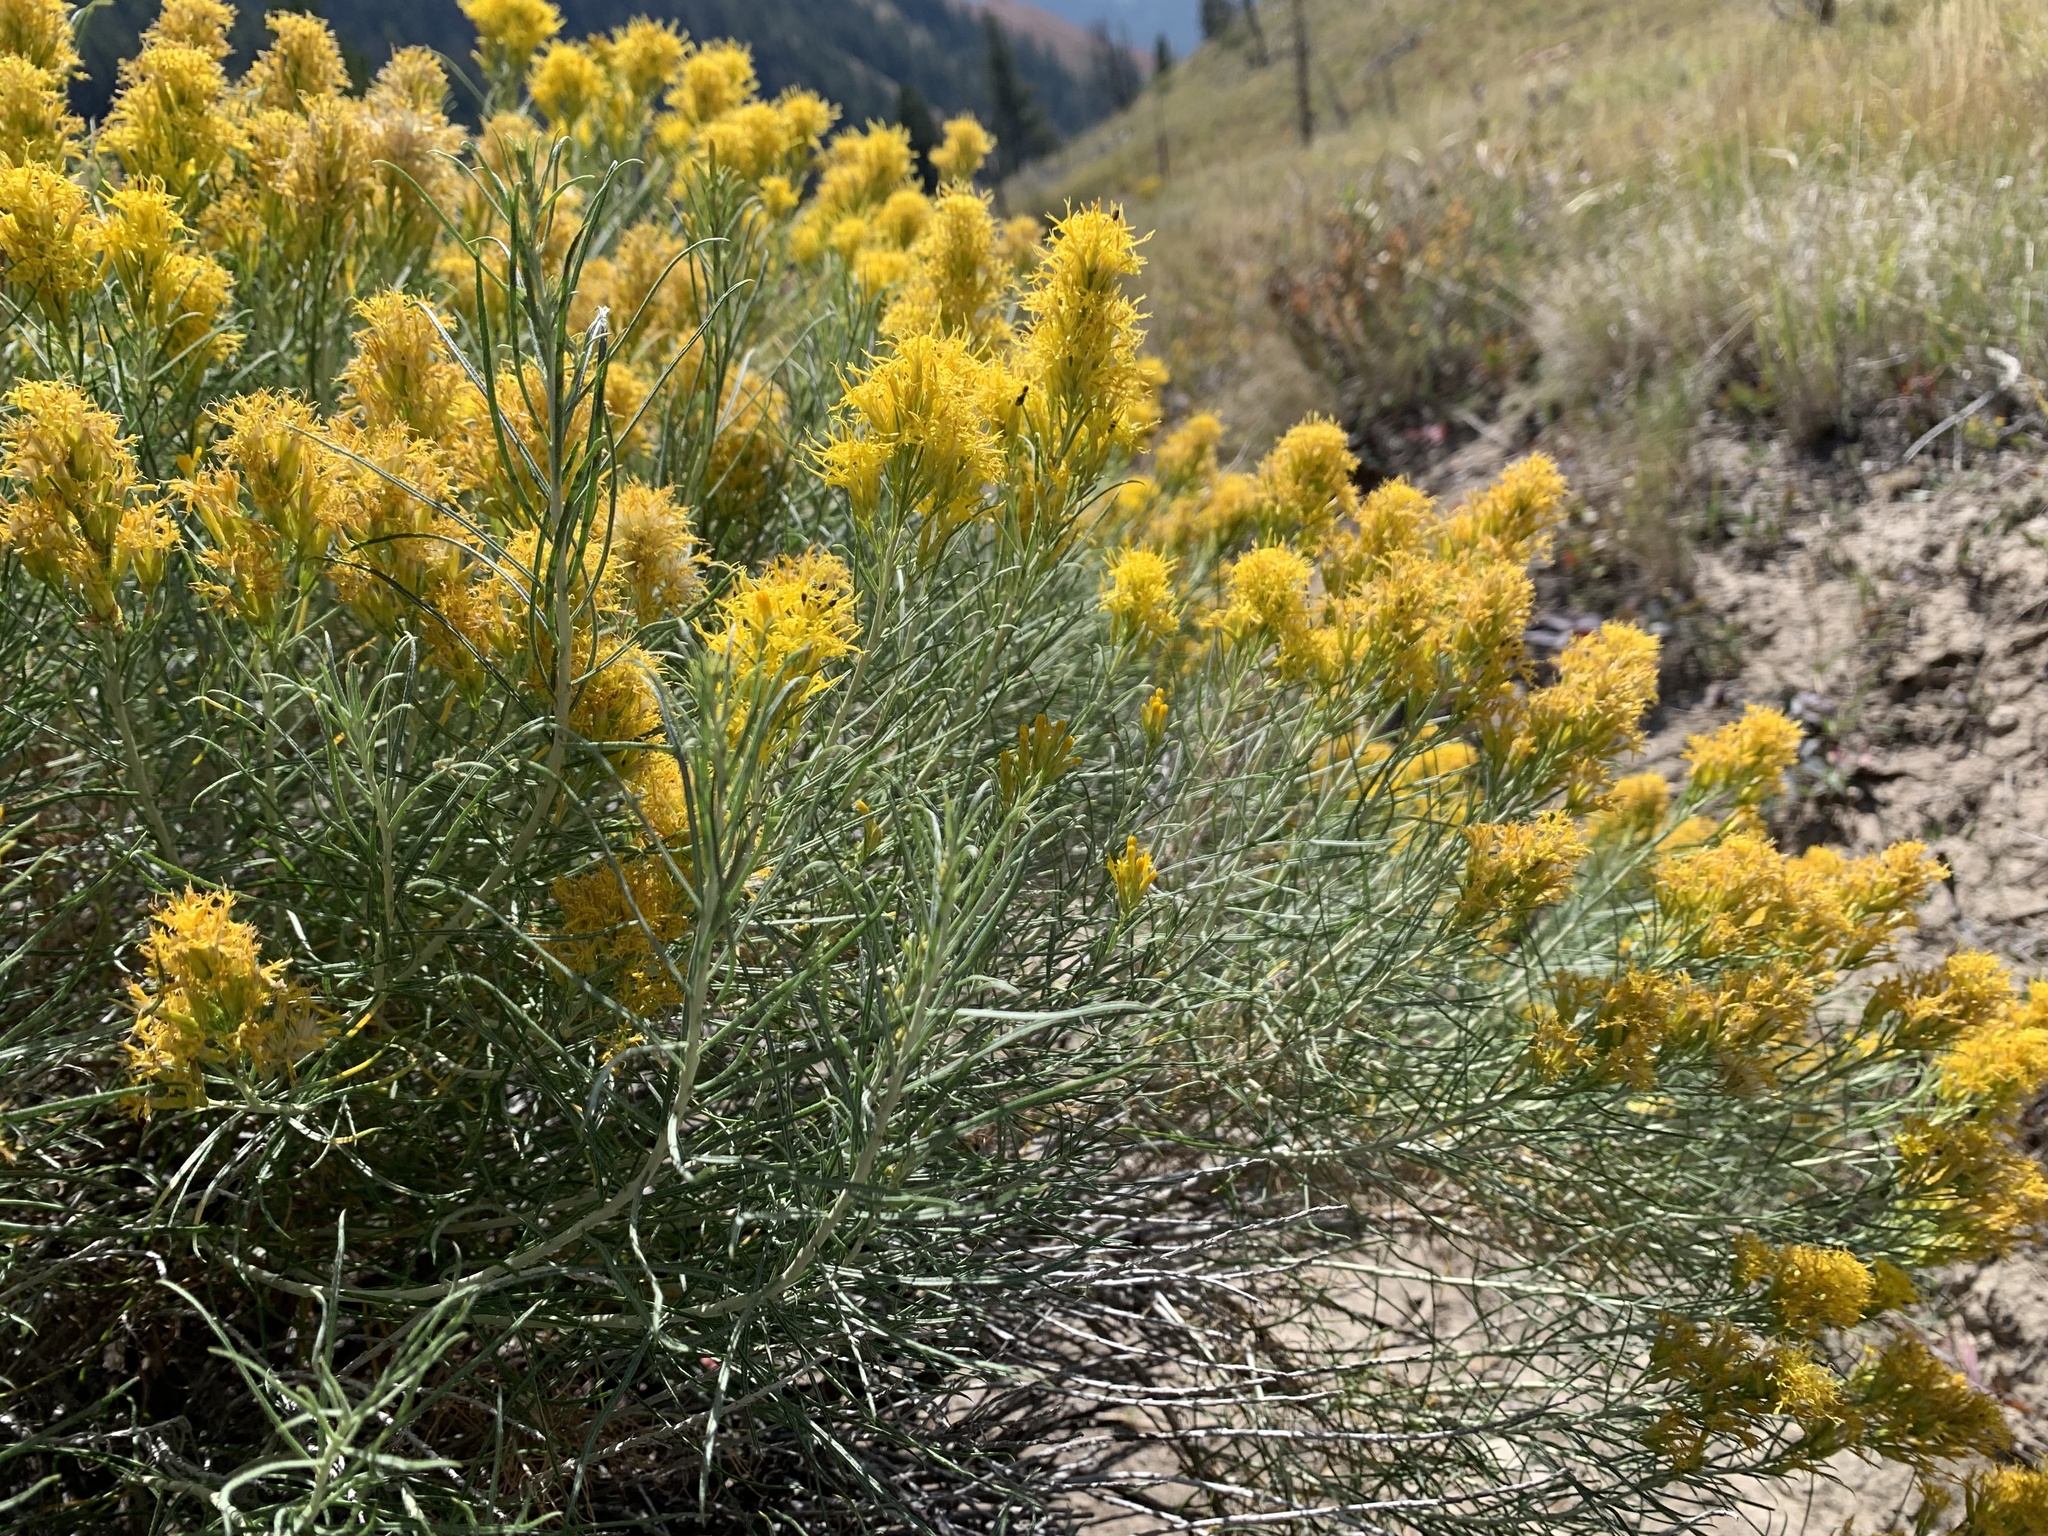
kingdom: Plantae
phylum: Tracheophyta
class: Magnoliopsida
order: Asterales
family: Asteraceae
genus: Ericameria
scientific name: Ericameria nauseosa
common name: Rubber rabbitbrush
